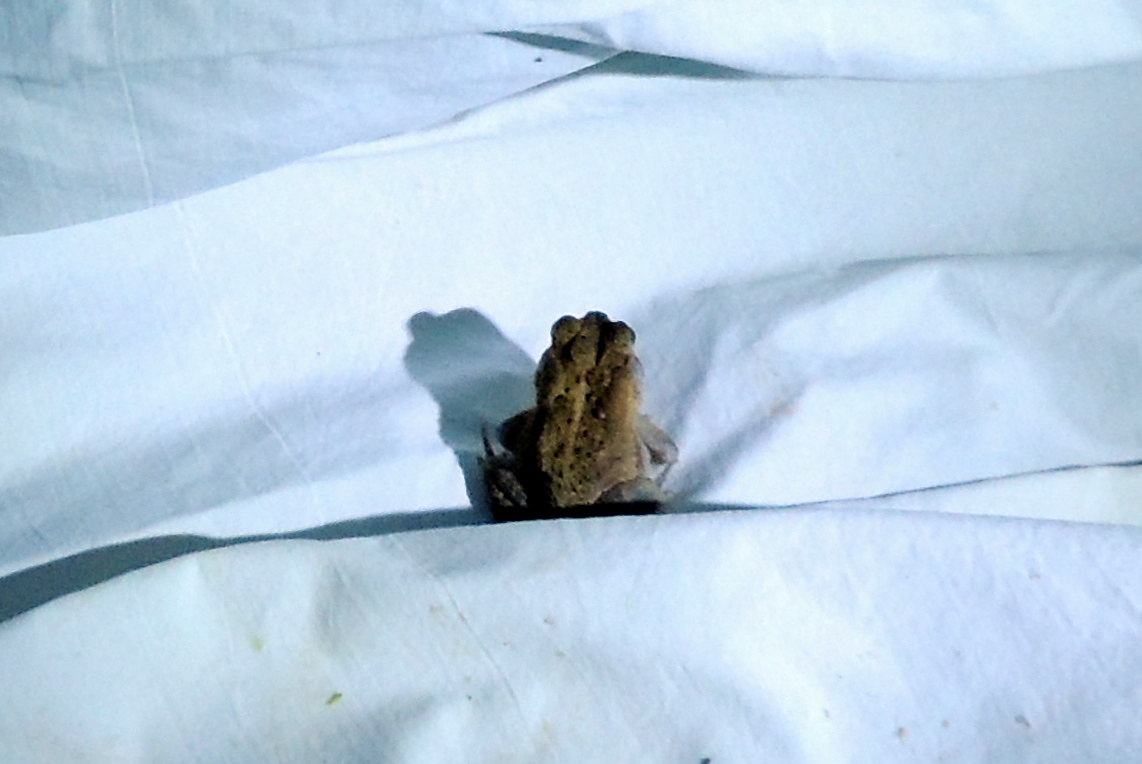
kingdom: Animalia
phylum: Chordata
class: Amphibia
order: Anura
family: Bufonidae
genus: Anaxyrus
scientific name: Anaxyrus terrestris
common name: Southern toad
